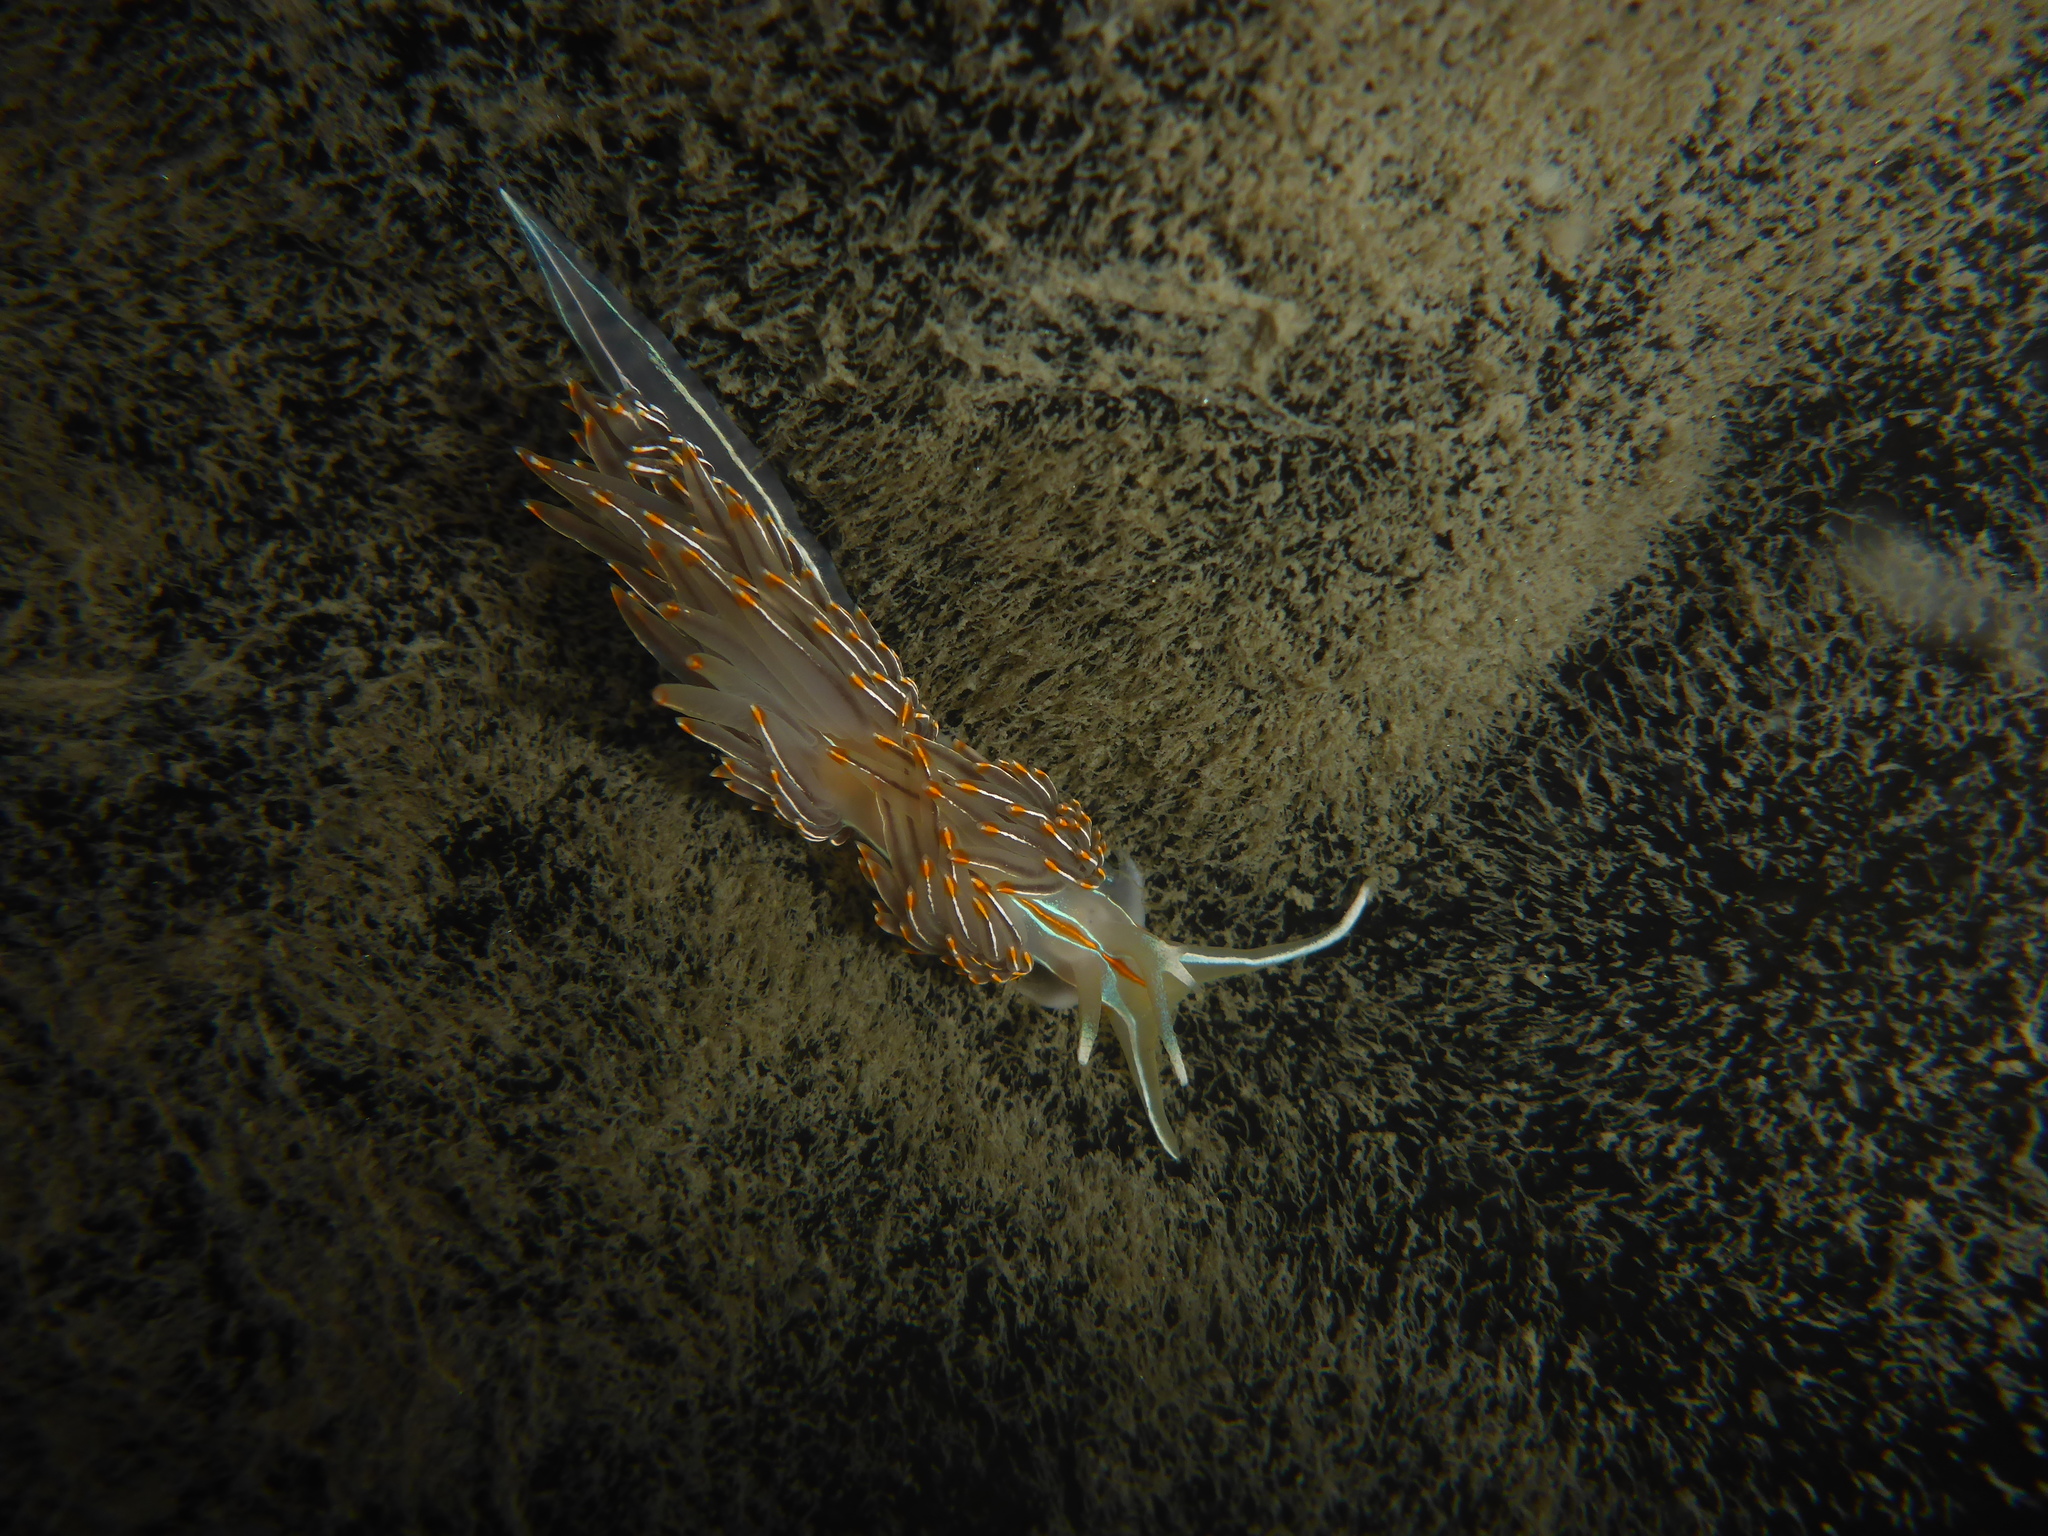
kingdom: Animalia
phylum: Mollusca
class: Gastropoda
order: Nudibranchia
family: Myrrhinidae
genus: Hermissenda
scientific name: Hermissenda crassicornis
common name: Hermissenda
